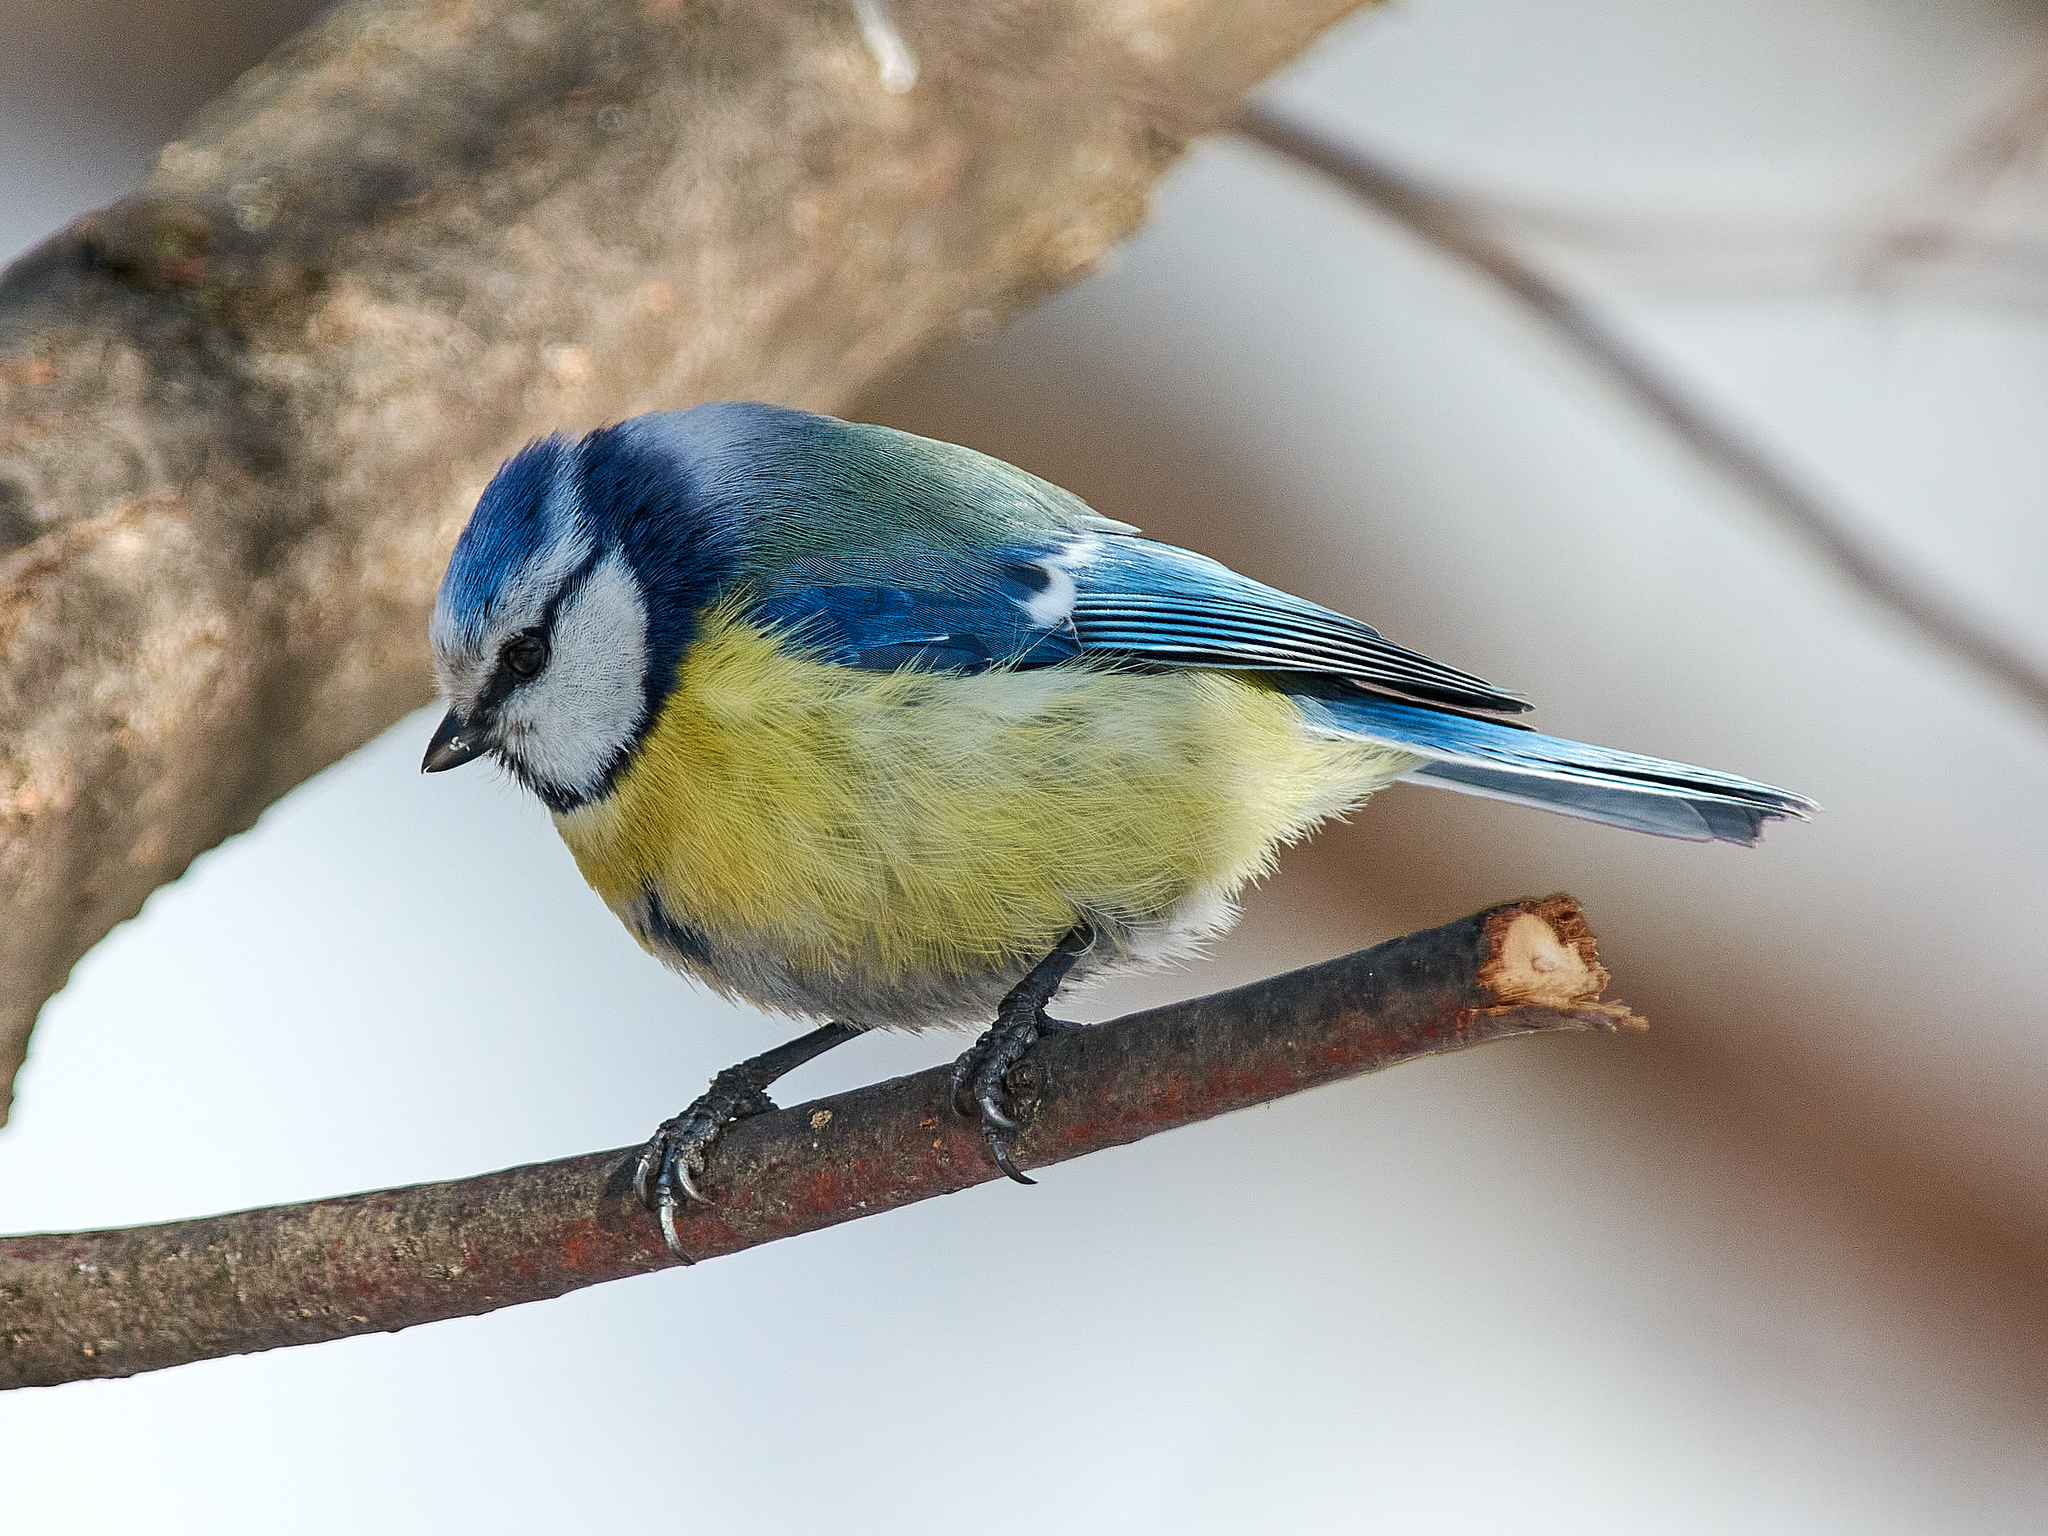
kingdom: Animalia
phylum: Chordata
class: Aves
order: Passeriformes
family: Paridae
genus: Cyanistes
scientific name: Cyanistes caeruleus
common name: Eurasian blue tit
